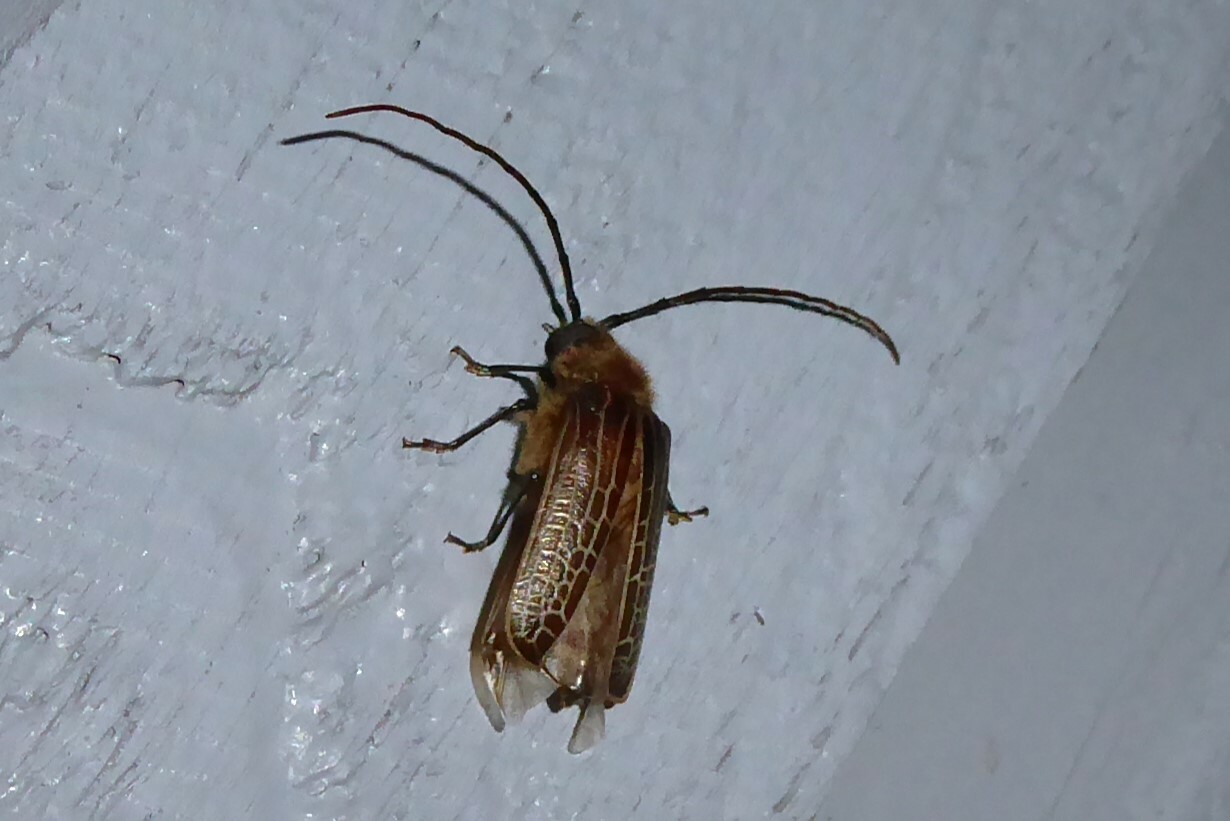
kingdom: Animalia
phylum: Arthropoda
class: Insecta
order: Coleoptera
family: Cerambycidae
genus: Prionoplus
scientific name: Prionoplus reticularis
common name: Huhu beetle
